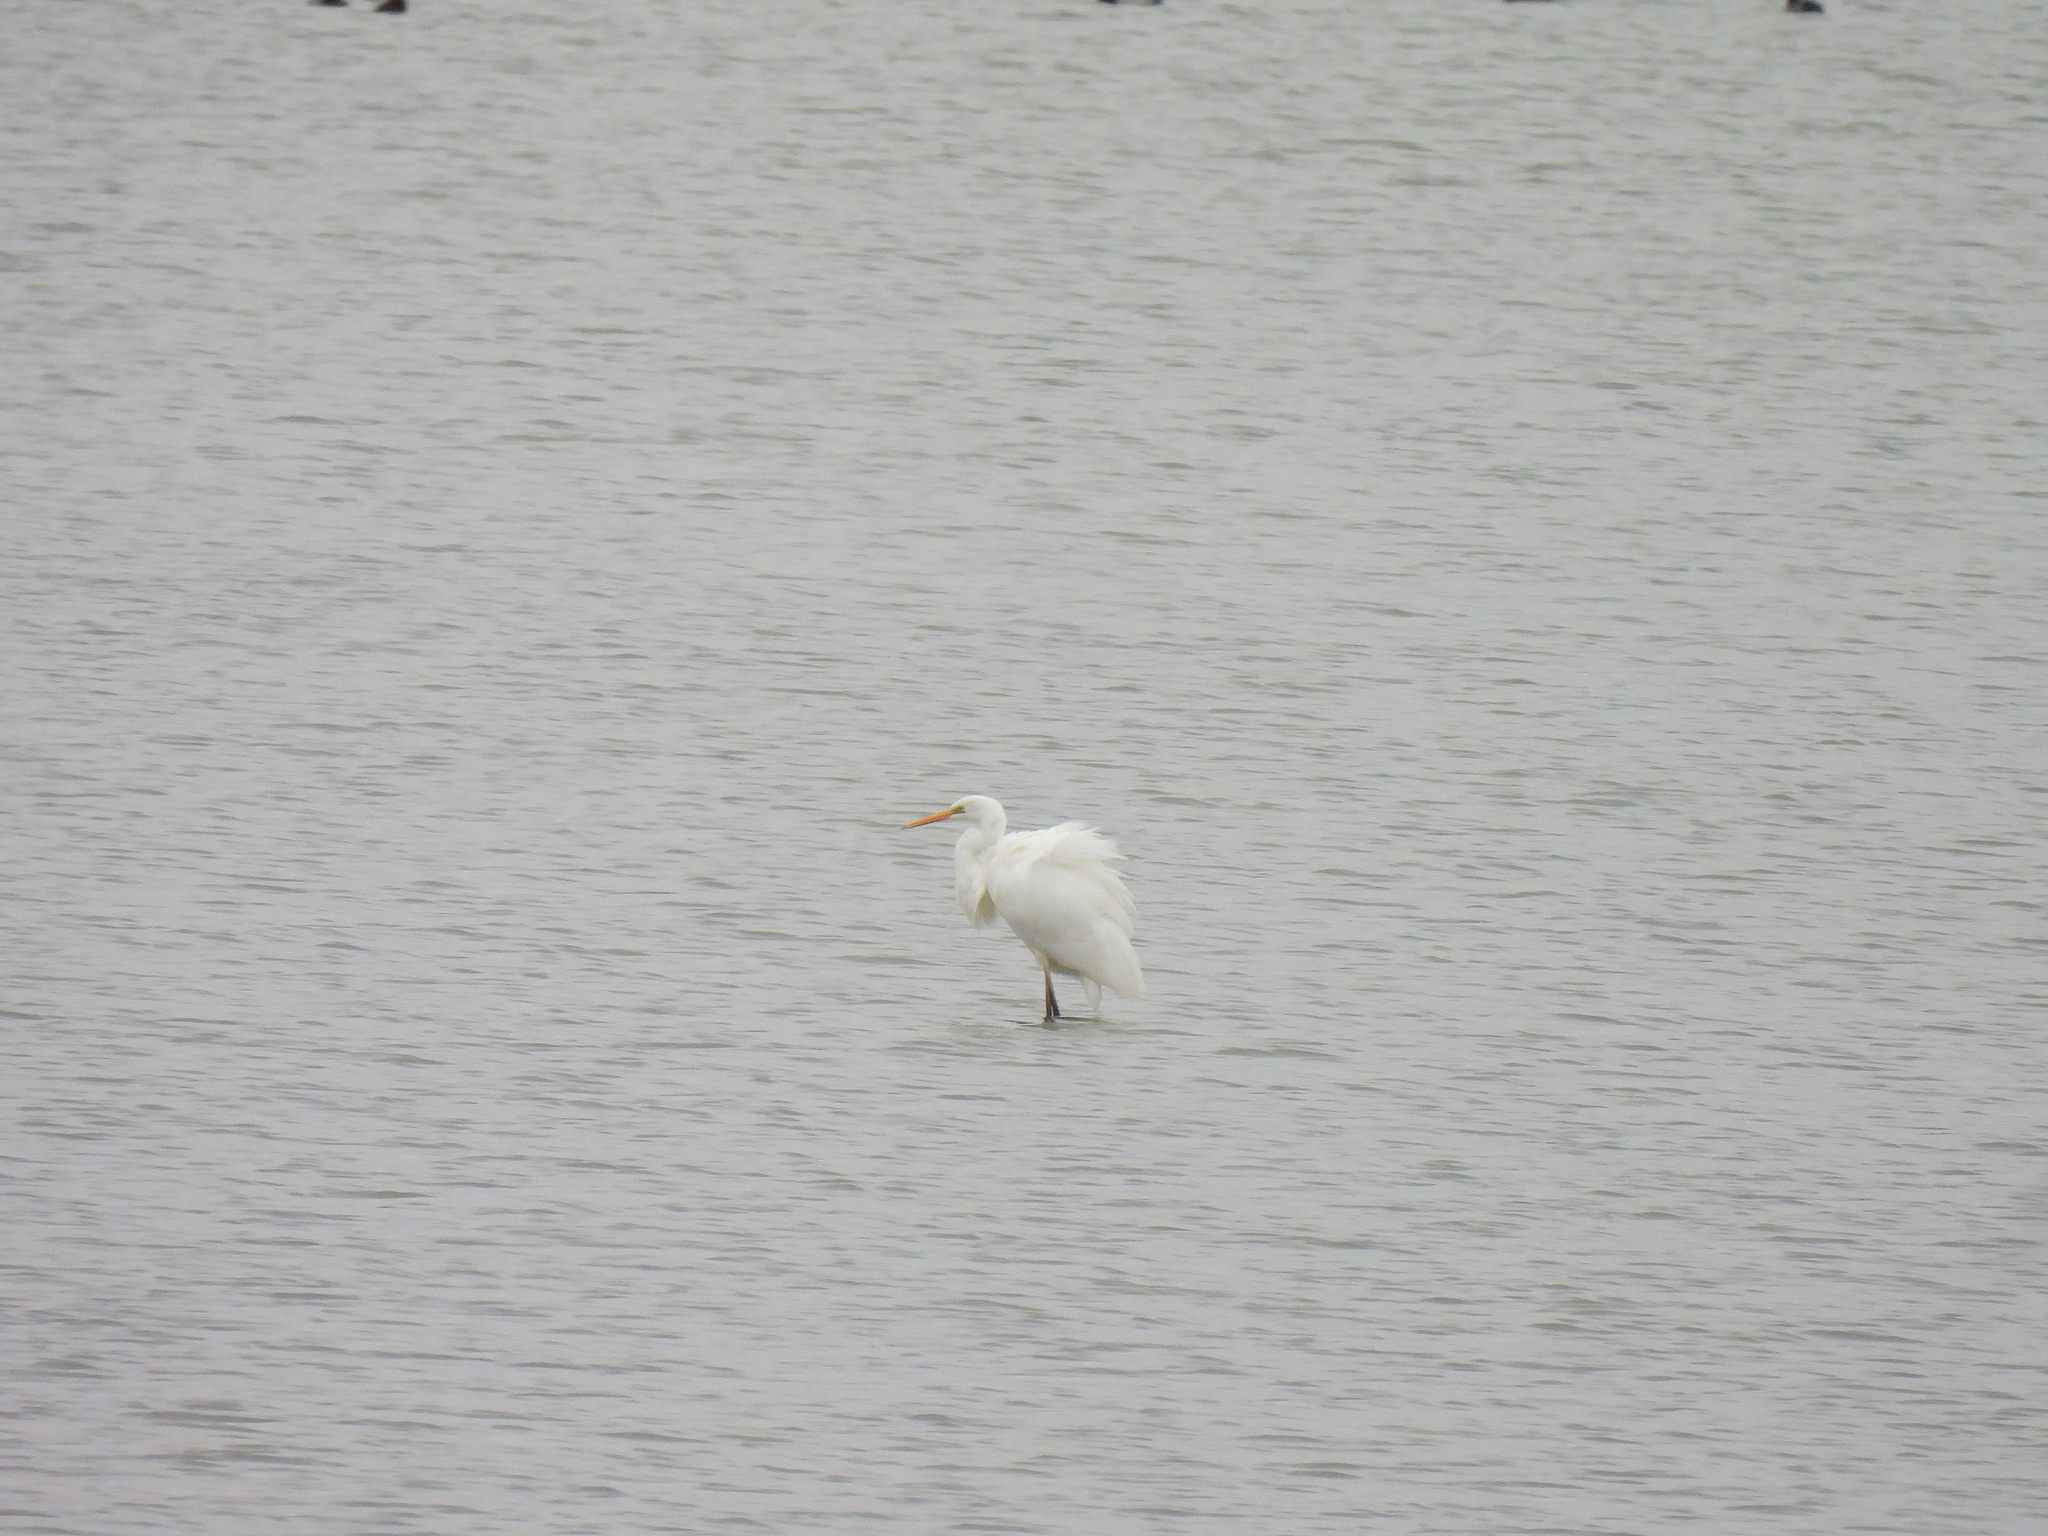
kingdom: Animalia
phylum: Chordata
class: Aves
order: Pelecaniformes
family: Ardeidae
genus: Ardea
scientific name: Ardea alba
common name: Great egret
